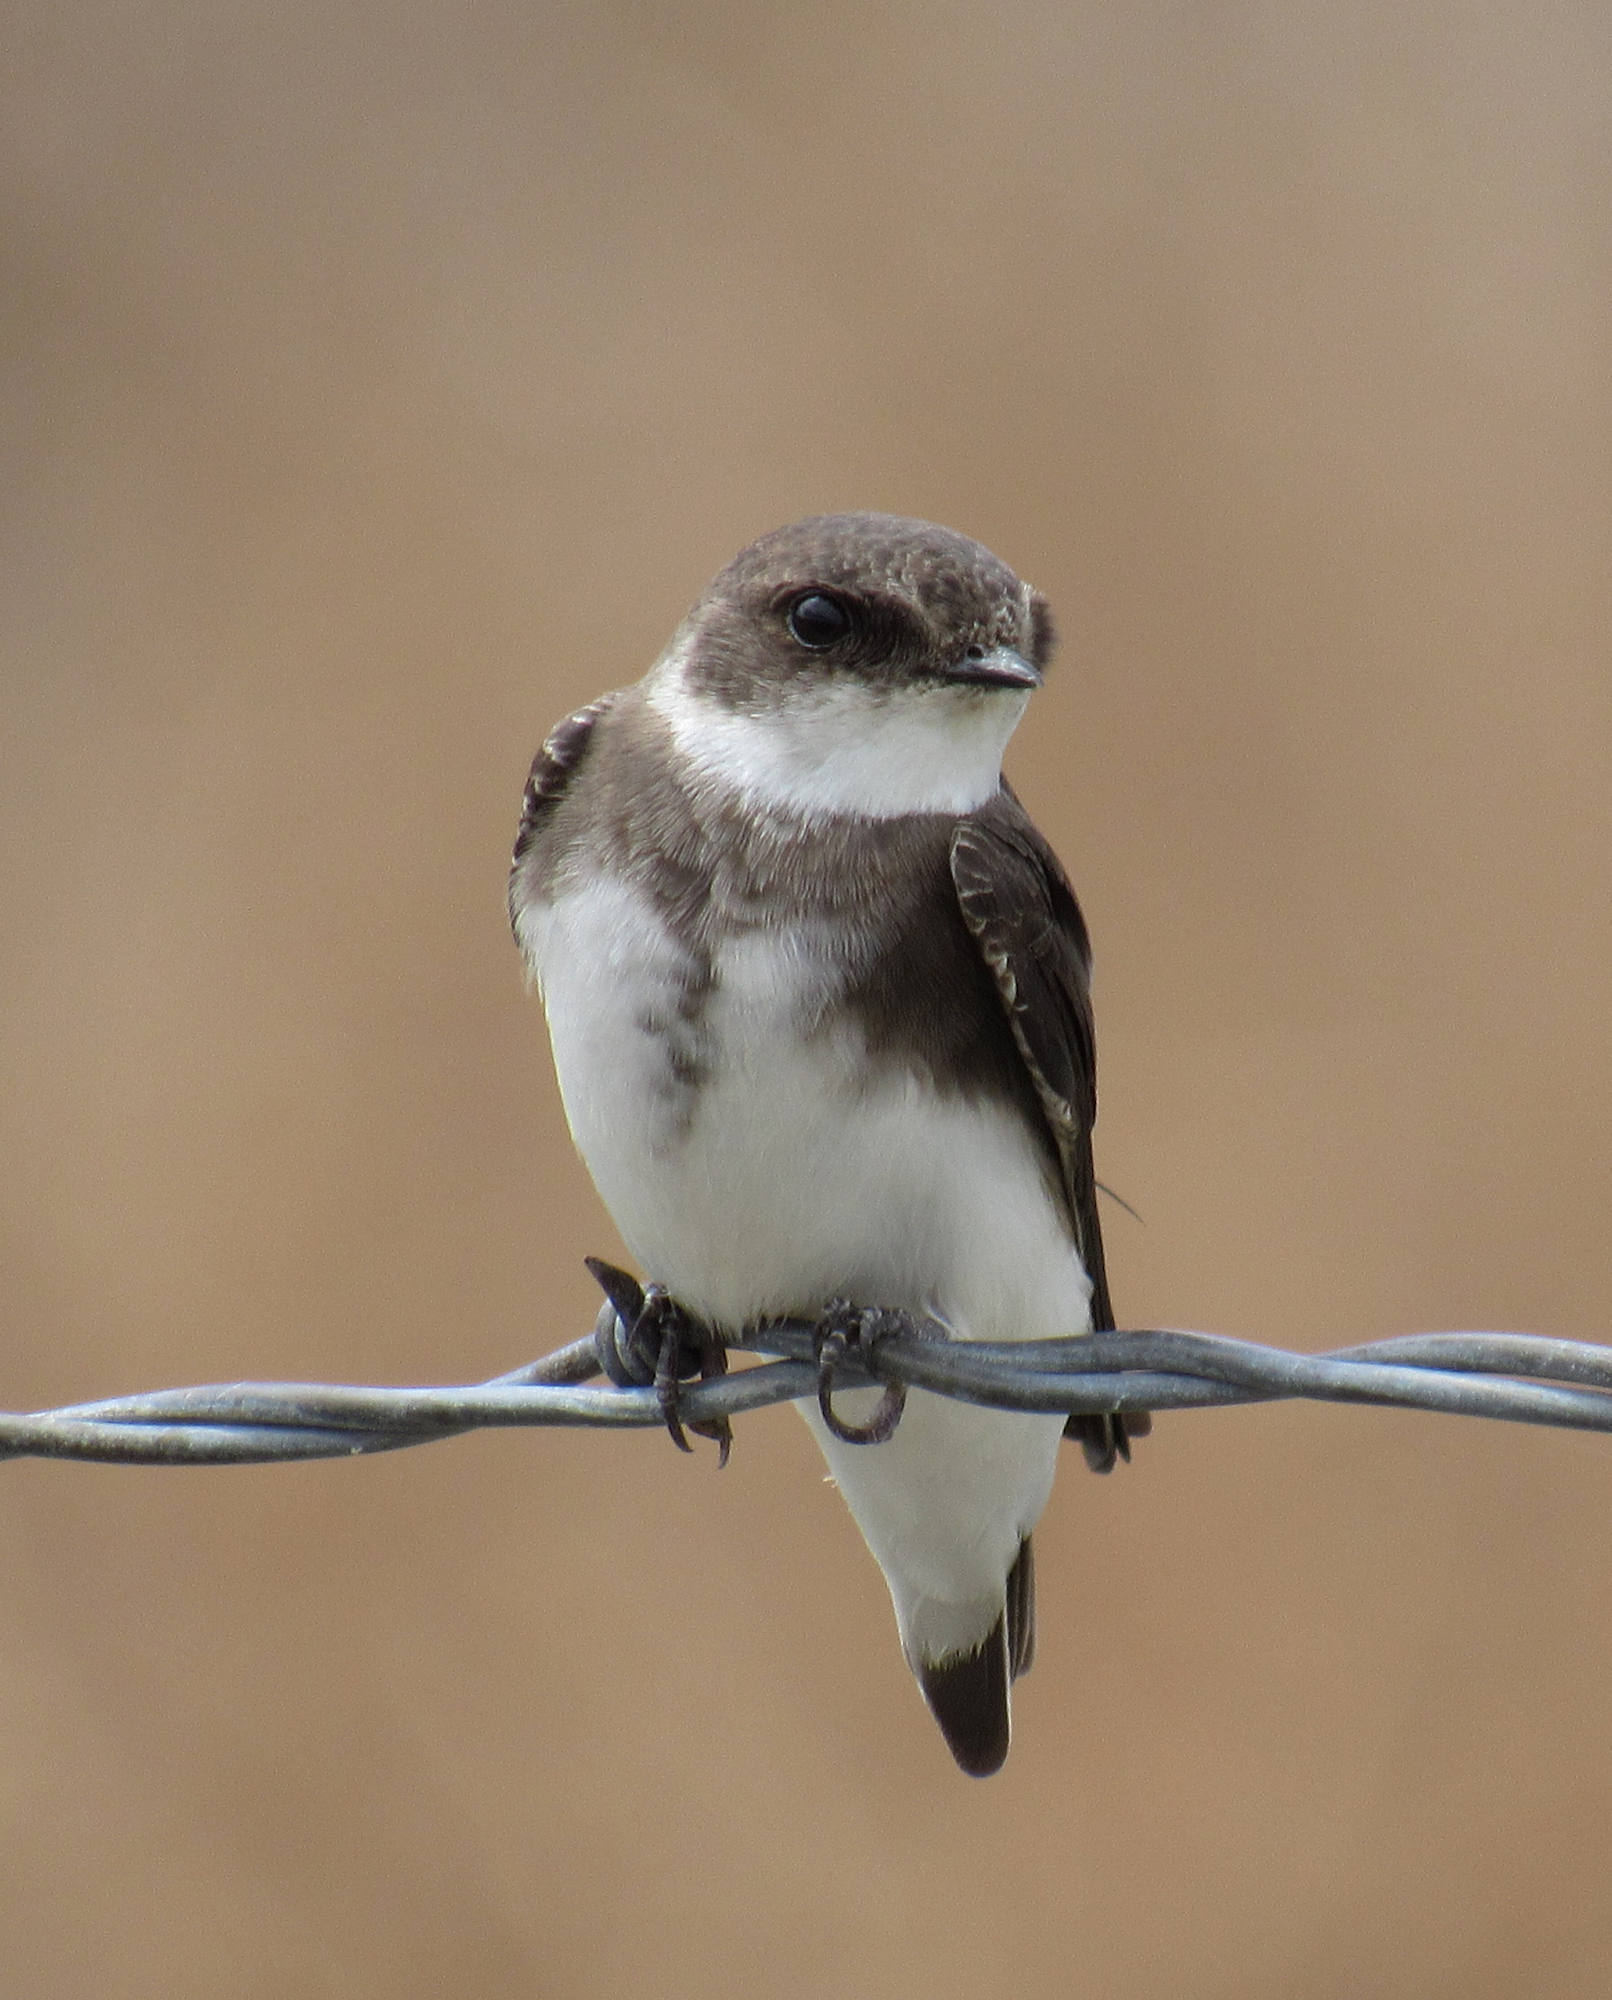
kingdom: Animalia
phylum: Chordata
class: Aves
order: Passeriformes
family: Hirundinidae
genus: Riparia
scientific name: Riparia riparia
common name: Sand martin
